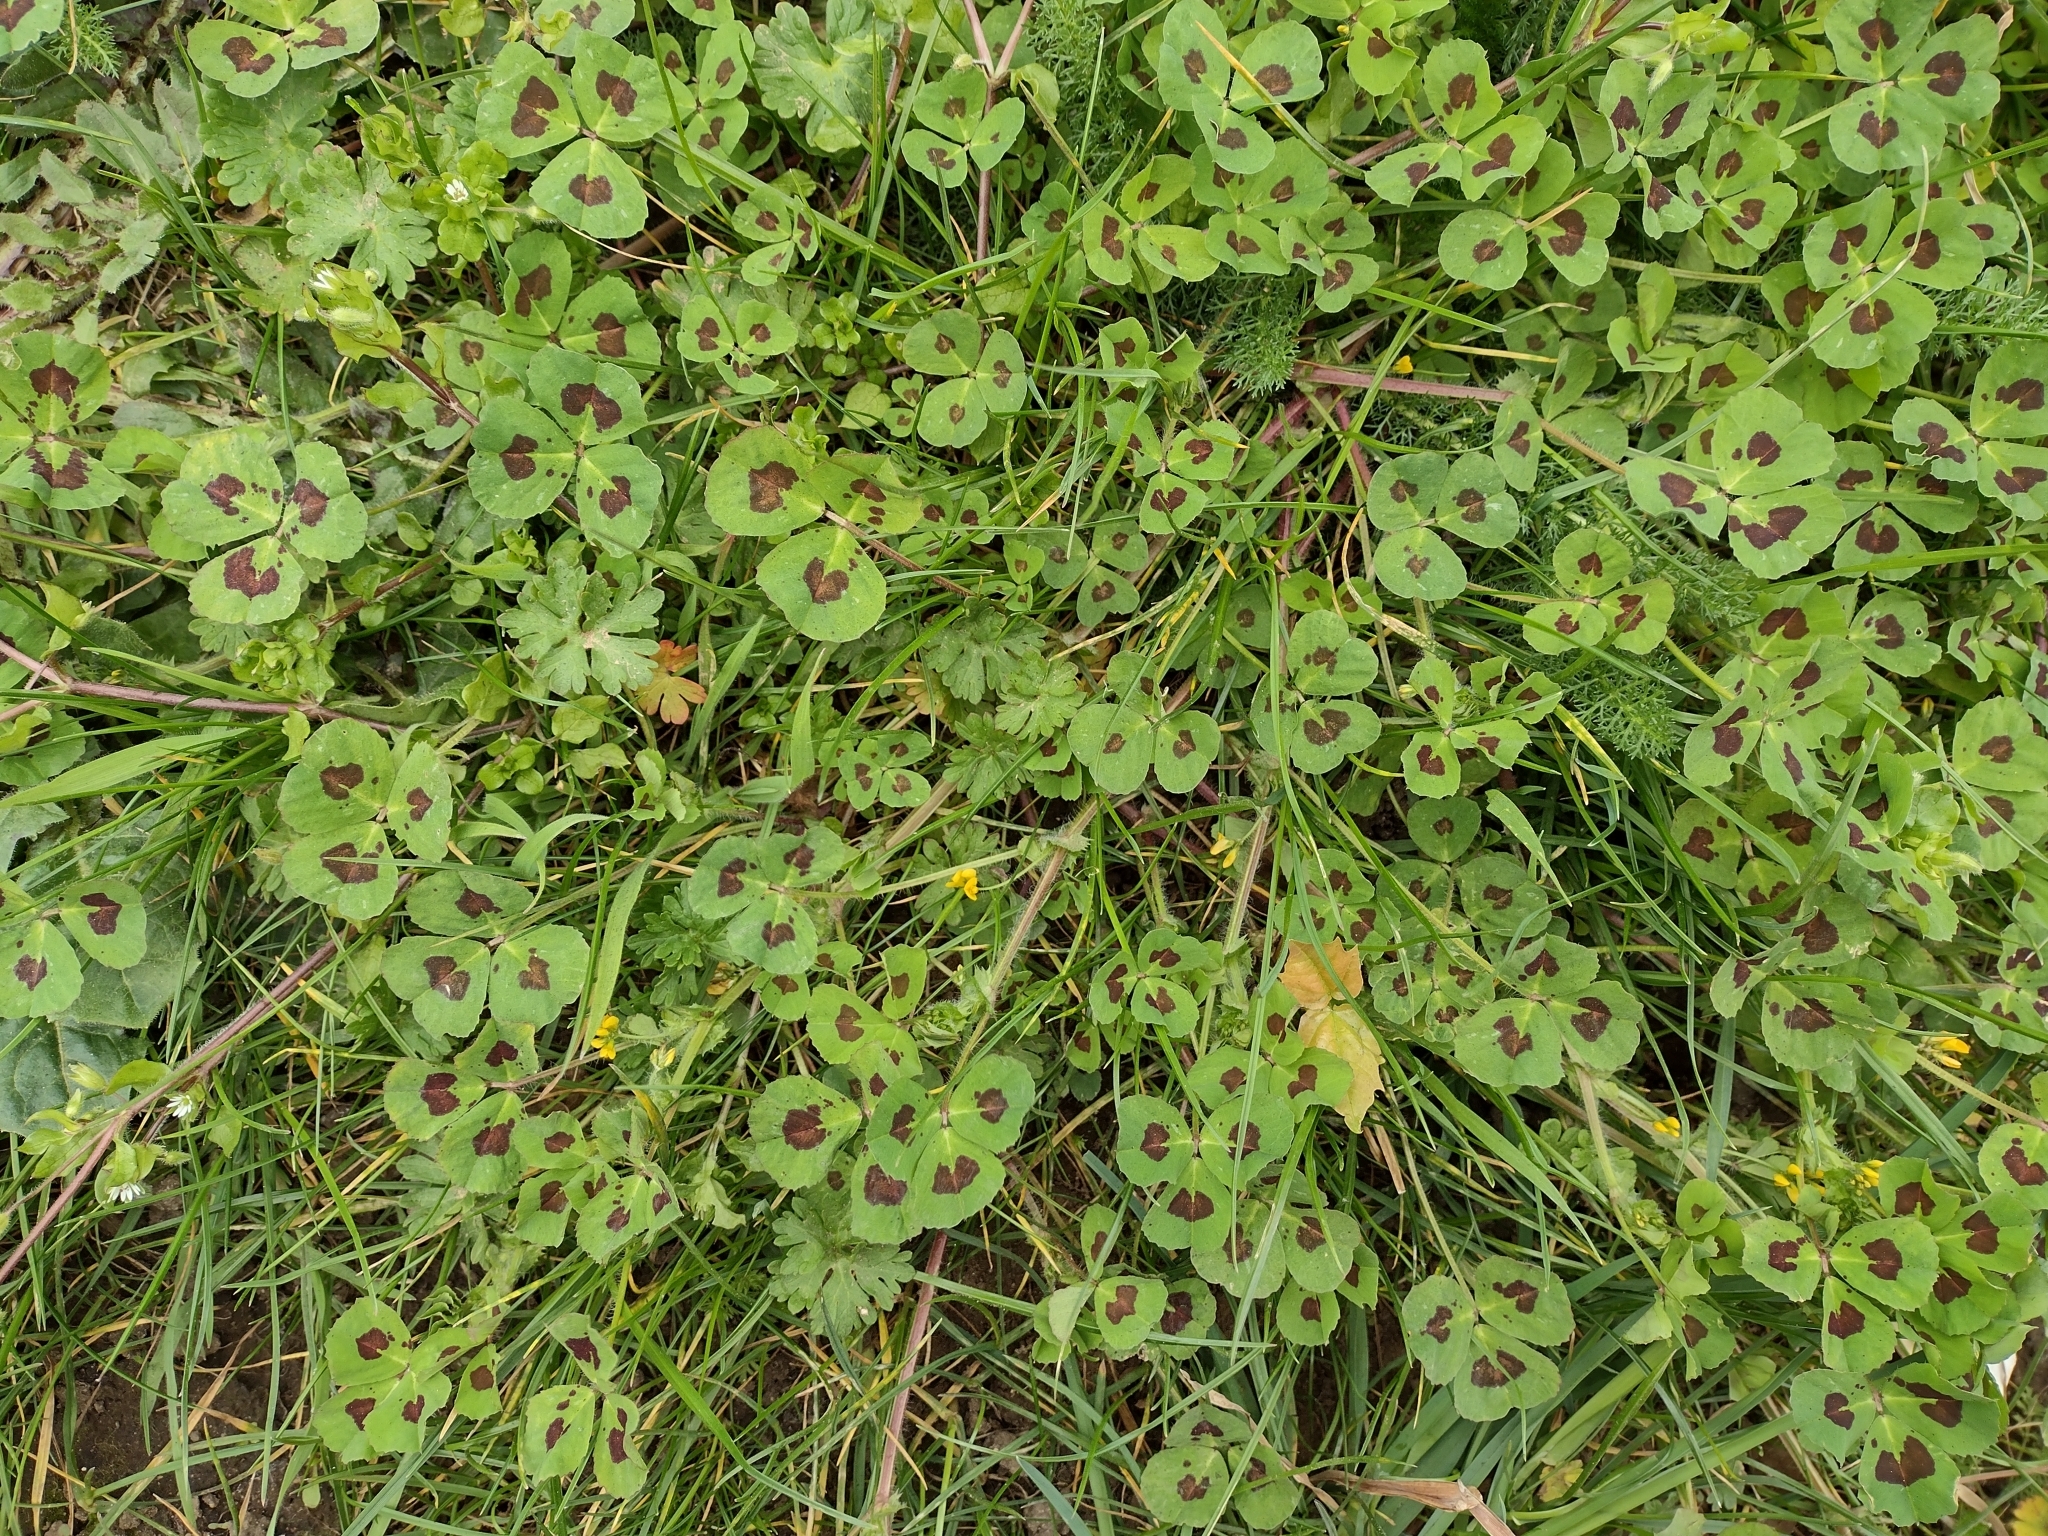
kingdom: Plantae
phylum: Tracheophyta
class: Magnoliopsida
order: Fabales
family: Fabaceae
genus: Medicago
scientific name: Medicago arabica
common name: Spotted medick
